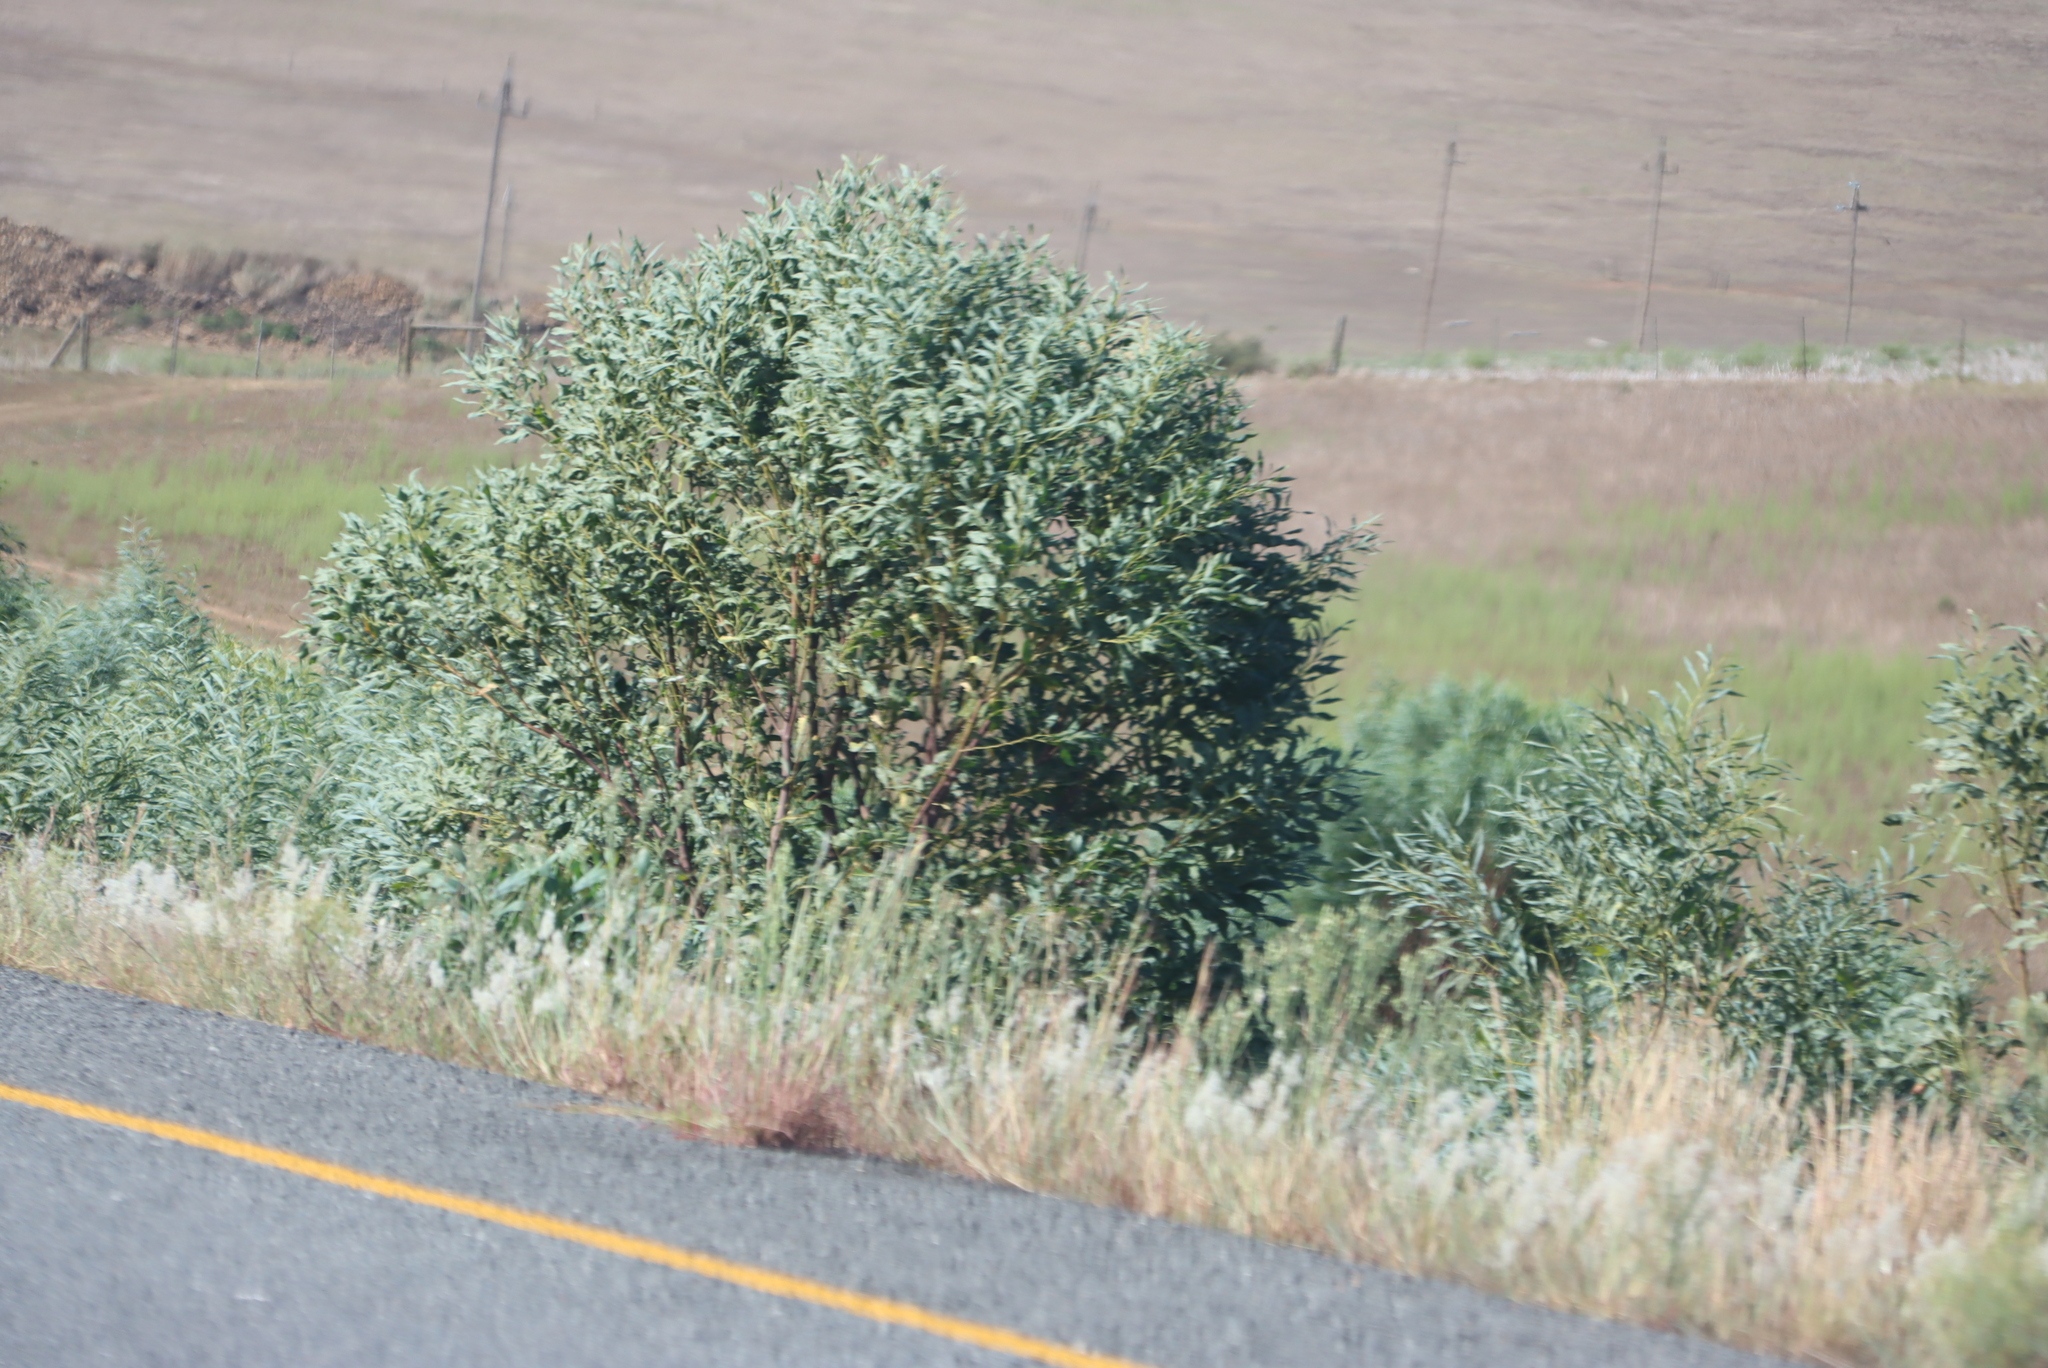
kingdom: Plantae
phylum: Tracheophyta
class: Magnoliopsida
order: Fabales
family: Fabaceae
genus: Acacia
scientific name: Acacia saligna
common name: Orange wattle
